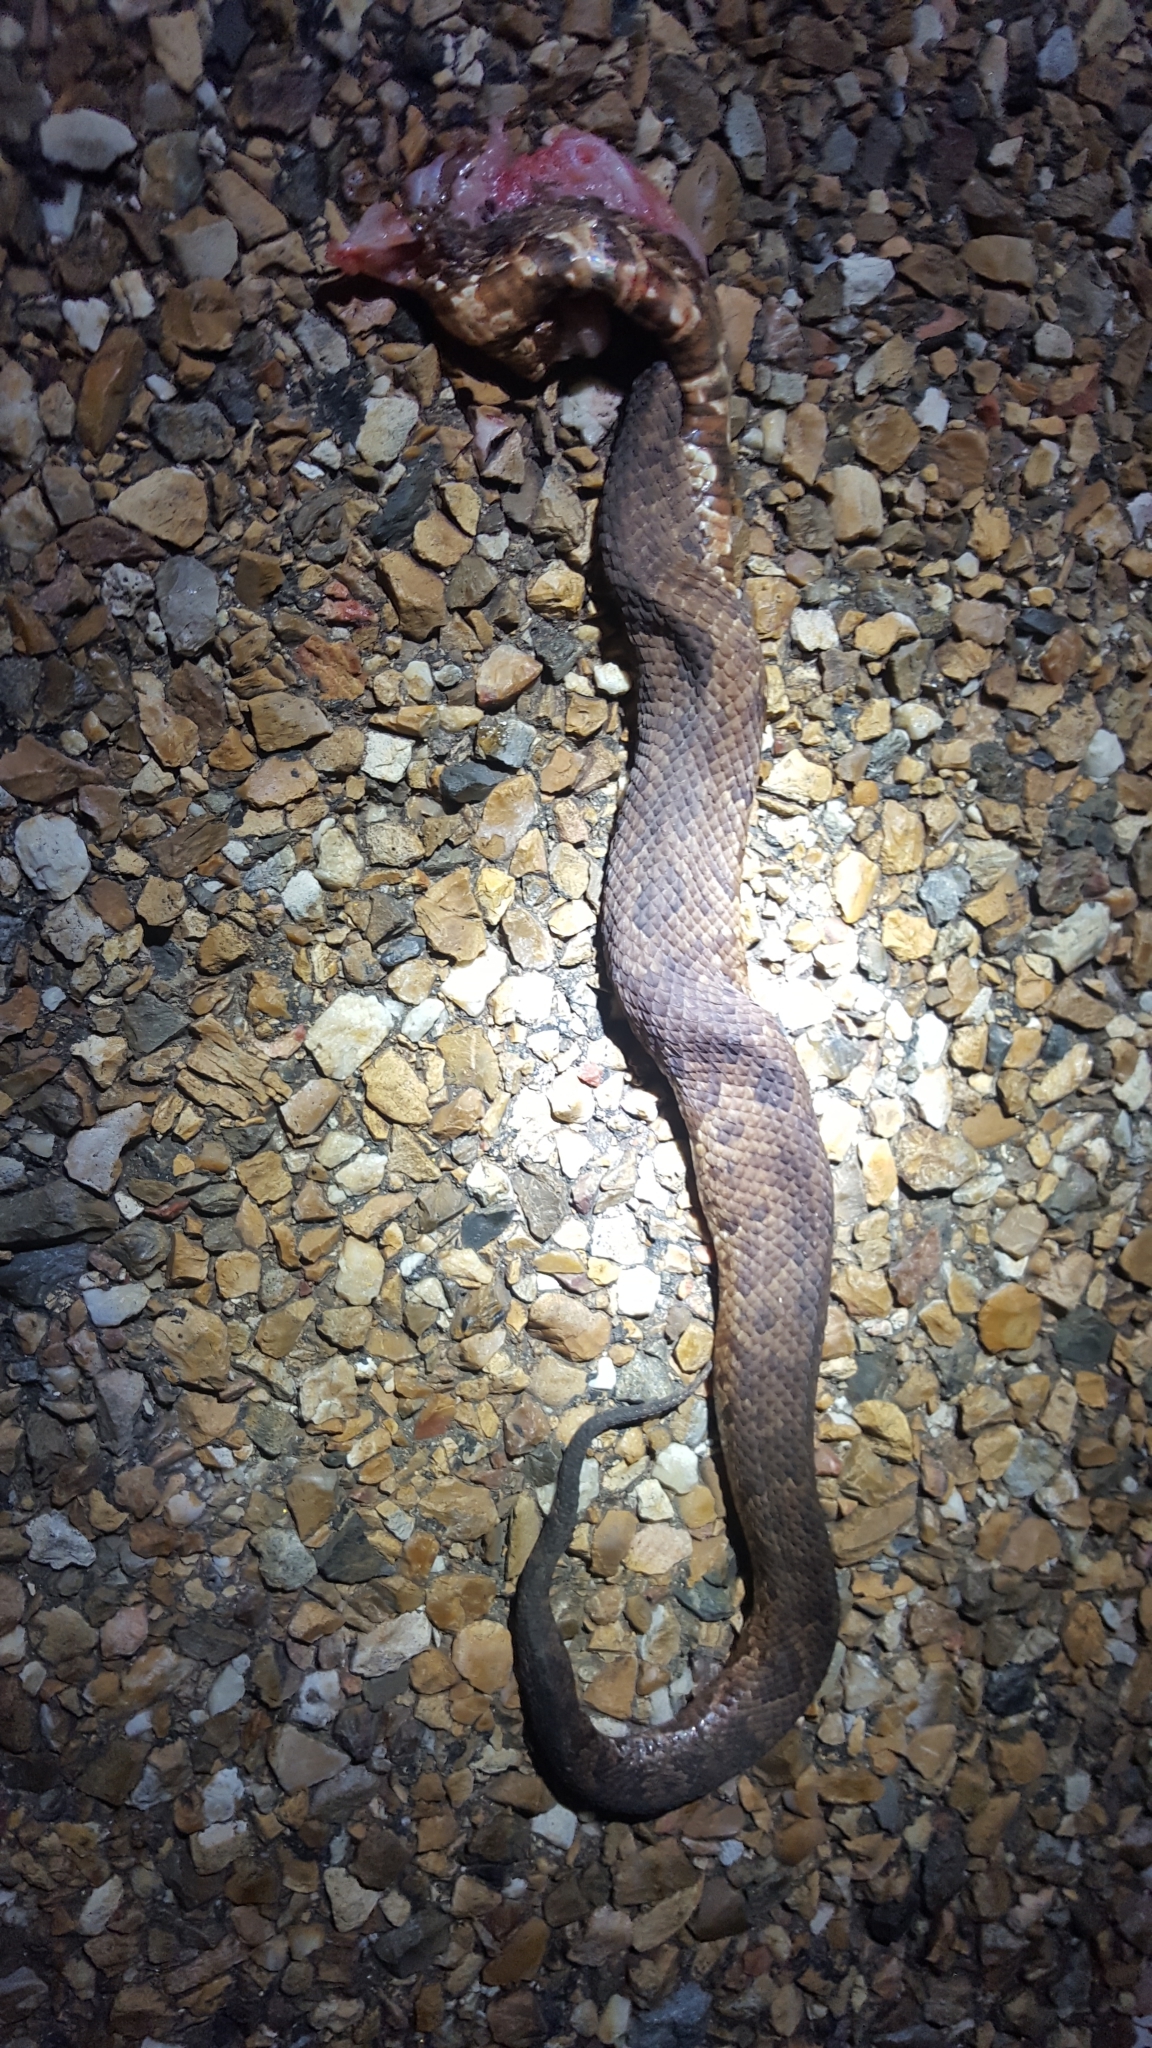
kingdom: Animalia
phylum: Chordata
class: Squamata
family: Viperidae
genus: Agkistrodon
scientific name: Agkistrodon piscivorus
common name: Cottonmouth
